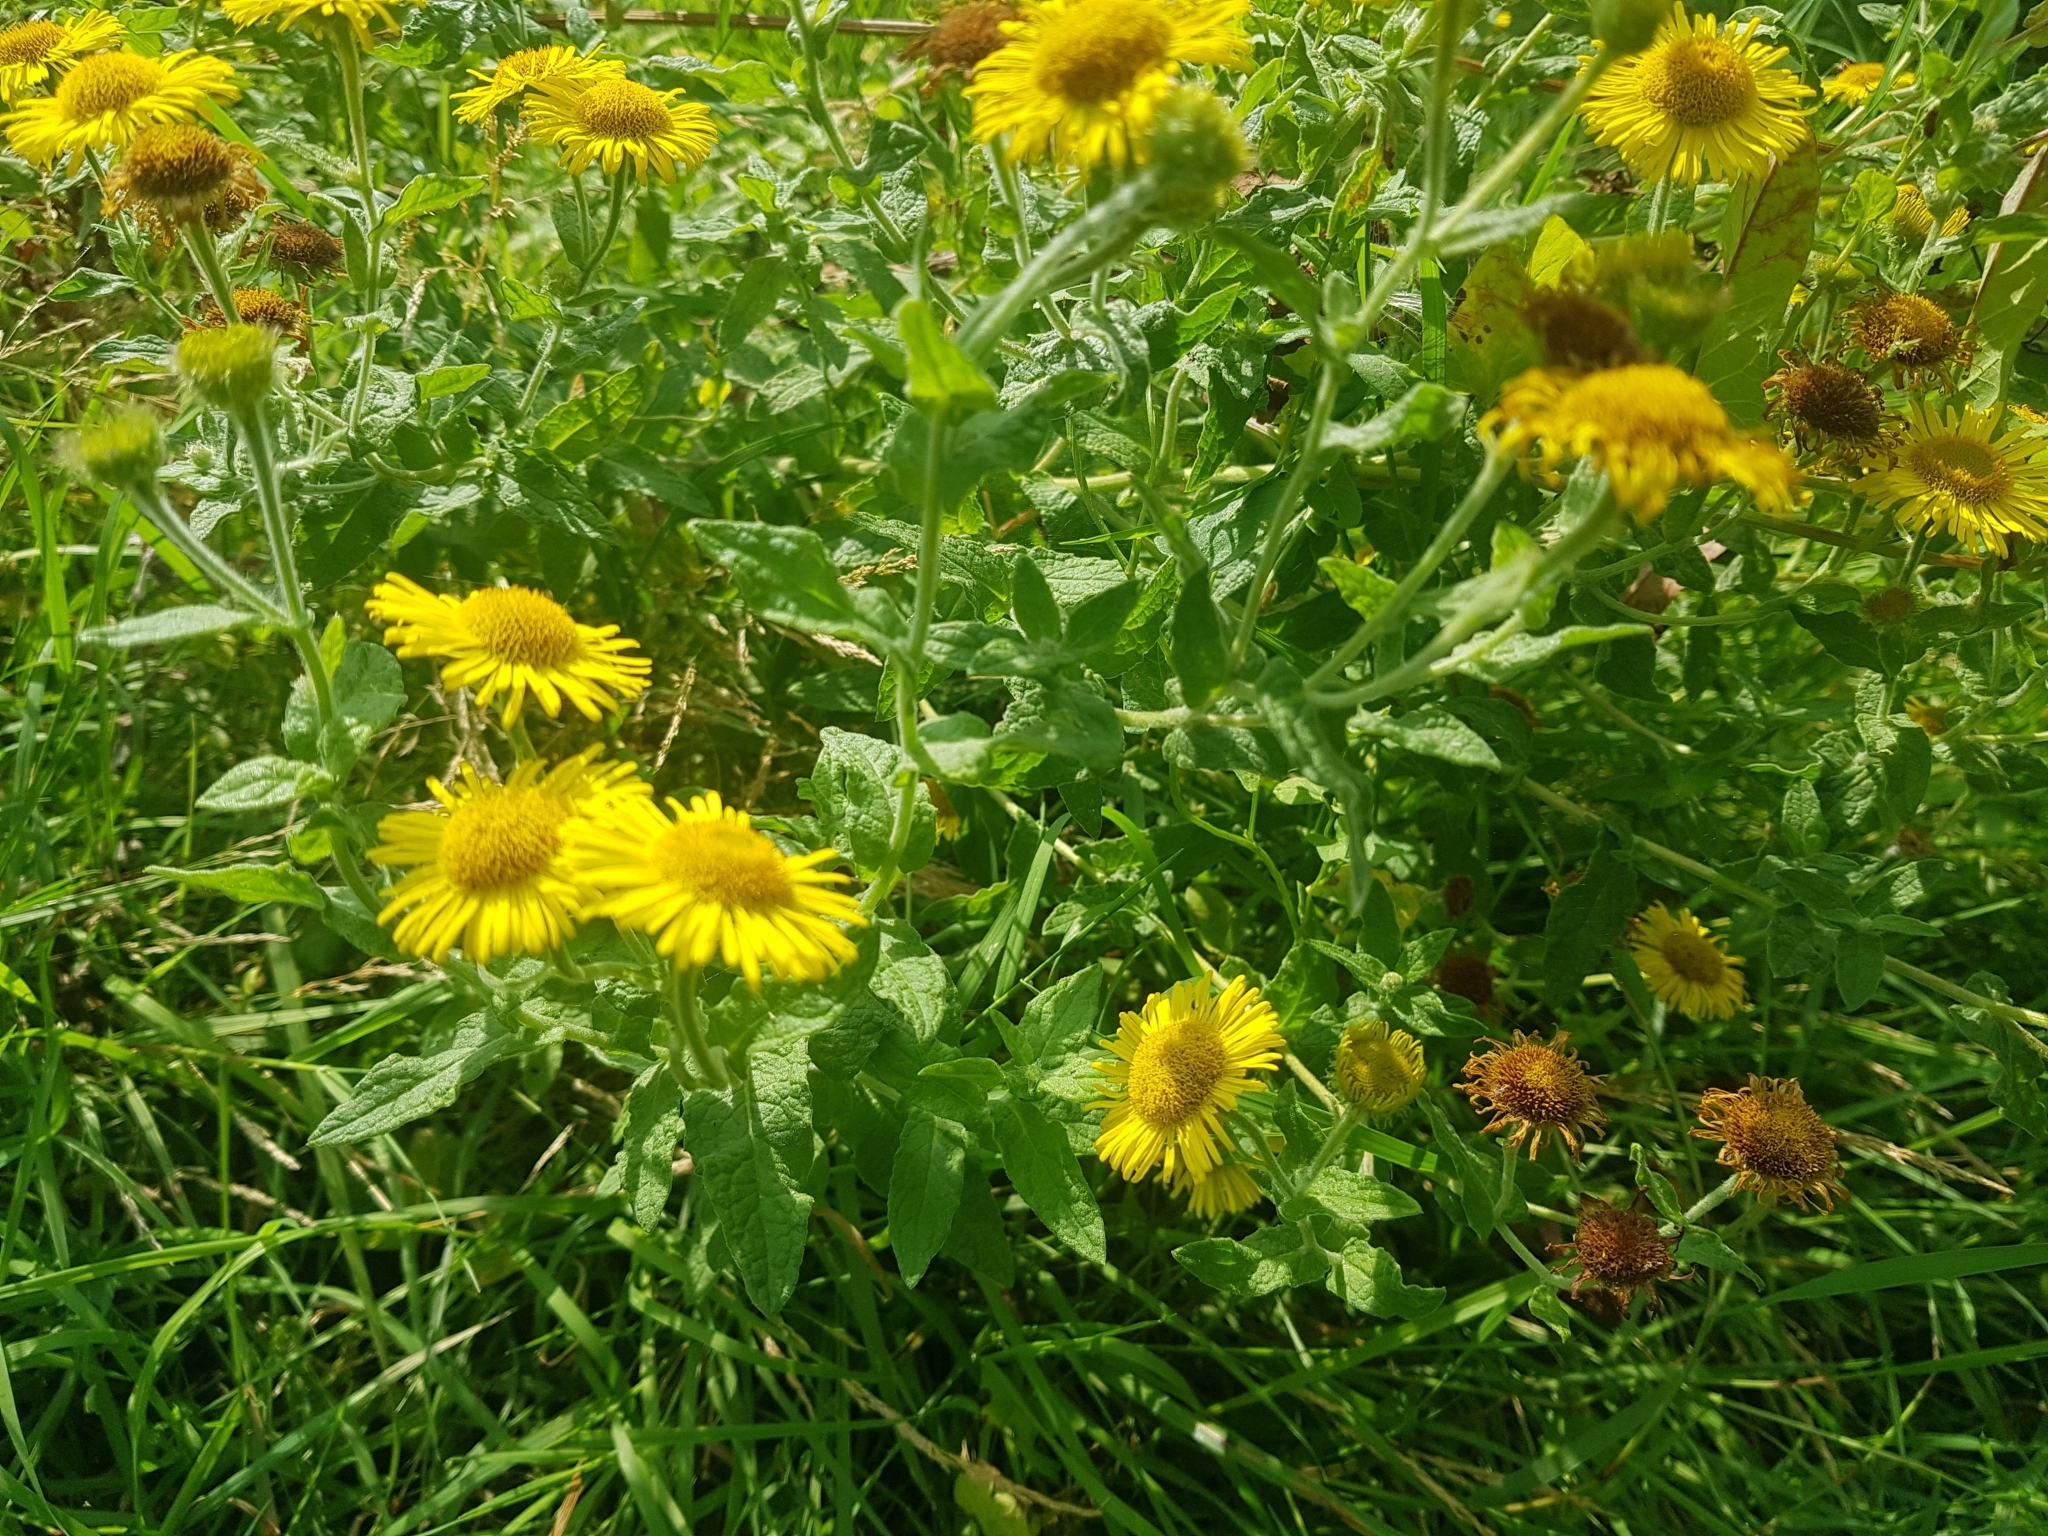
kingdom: Plantae
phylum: Tracheophyta
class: Magnoliopsida
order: Asterales
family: Asteraceae
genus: Pulicaria
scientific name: Pulicaria dysenterica
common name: Common fleabane
